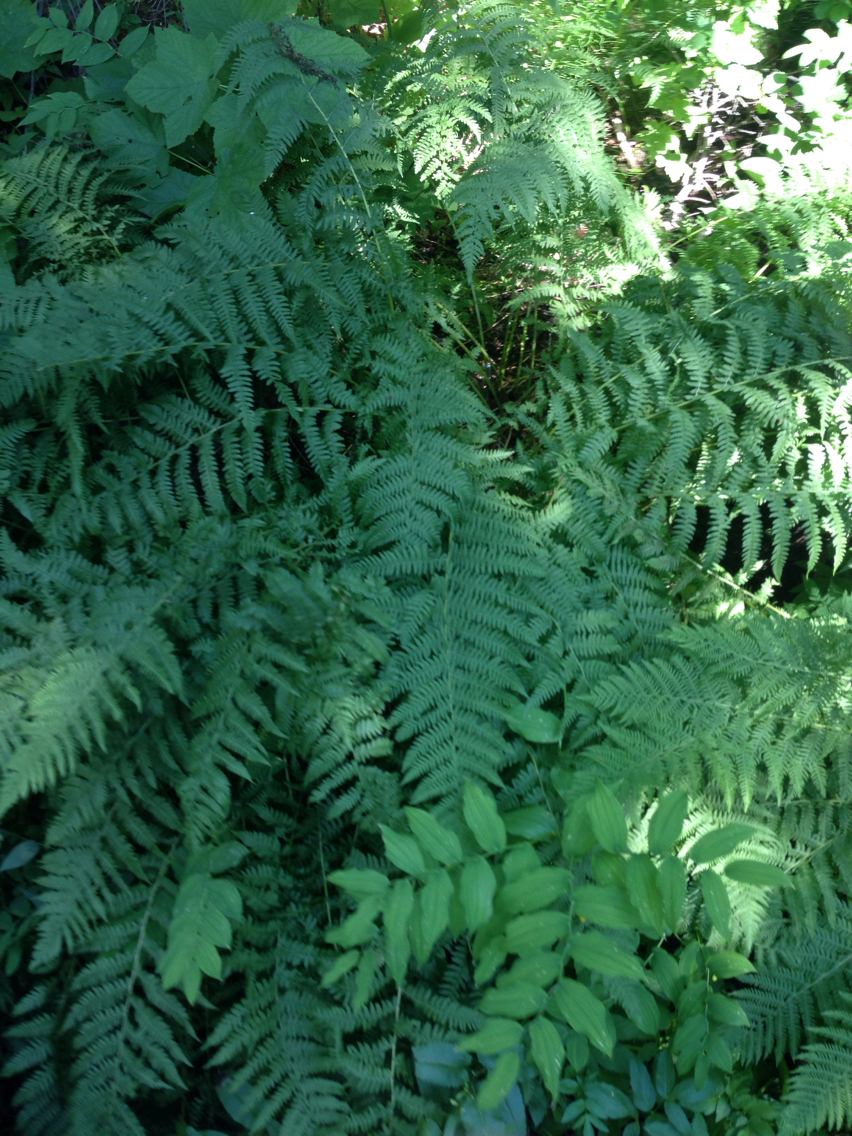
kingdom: Plantae
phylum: Tracheophyta
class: Polypodiopsida
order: Polypodiales
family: Athyriaceae
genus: Athyrium
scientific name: Athyrium cyclosorum
